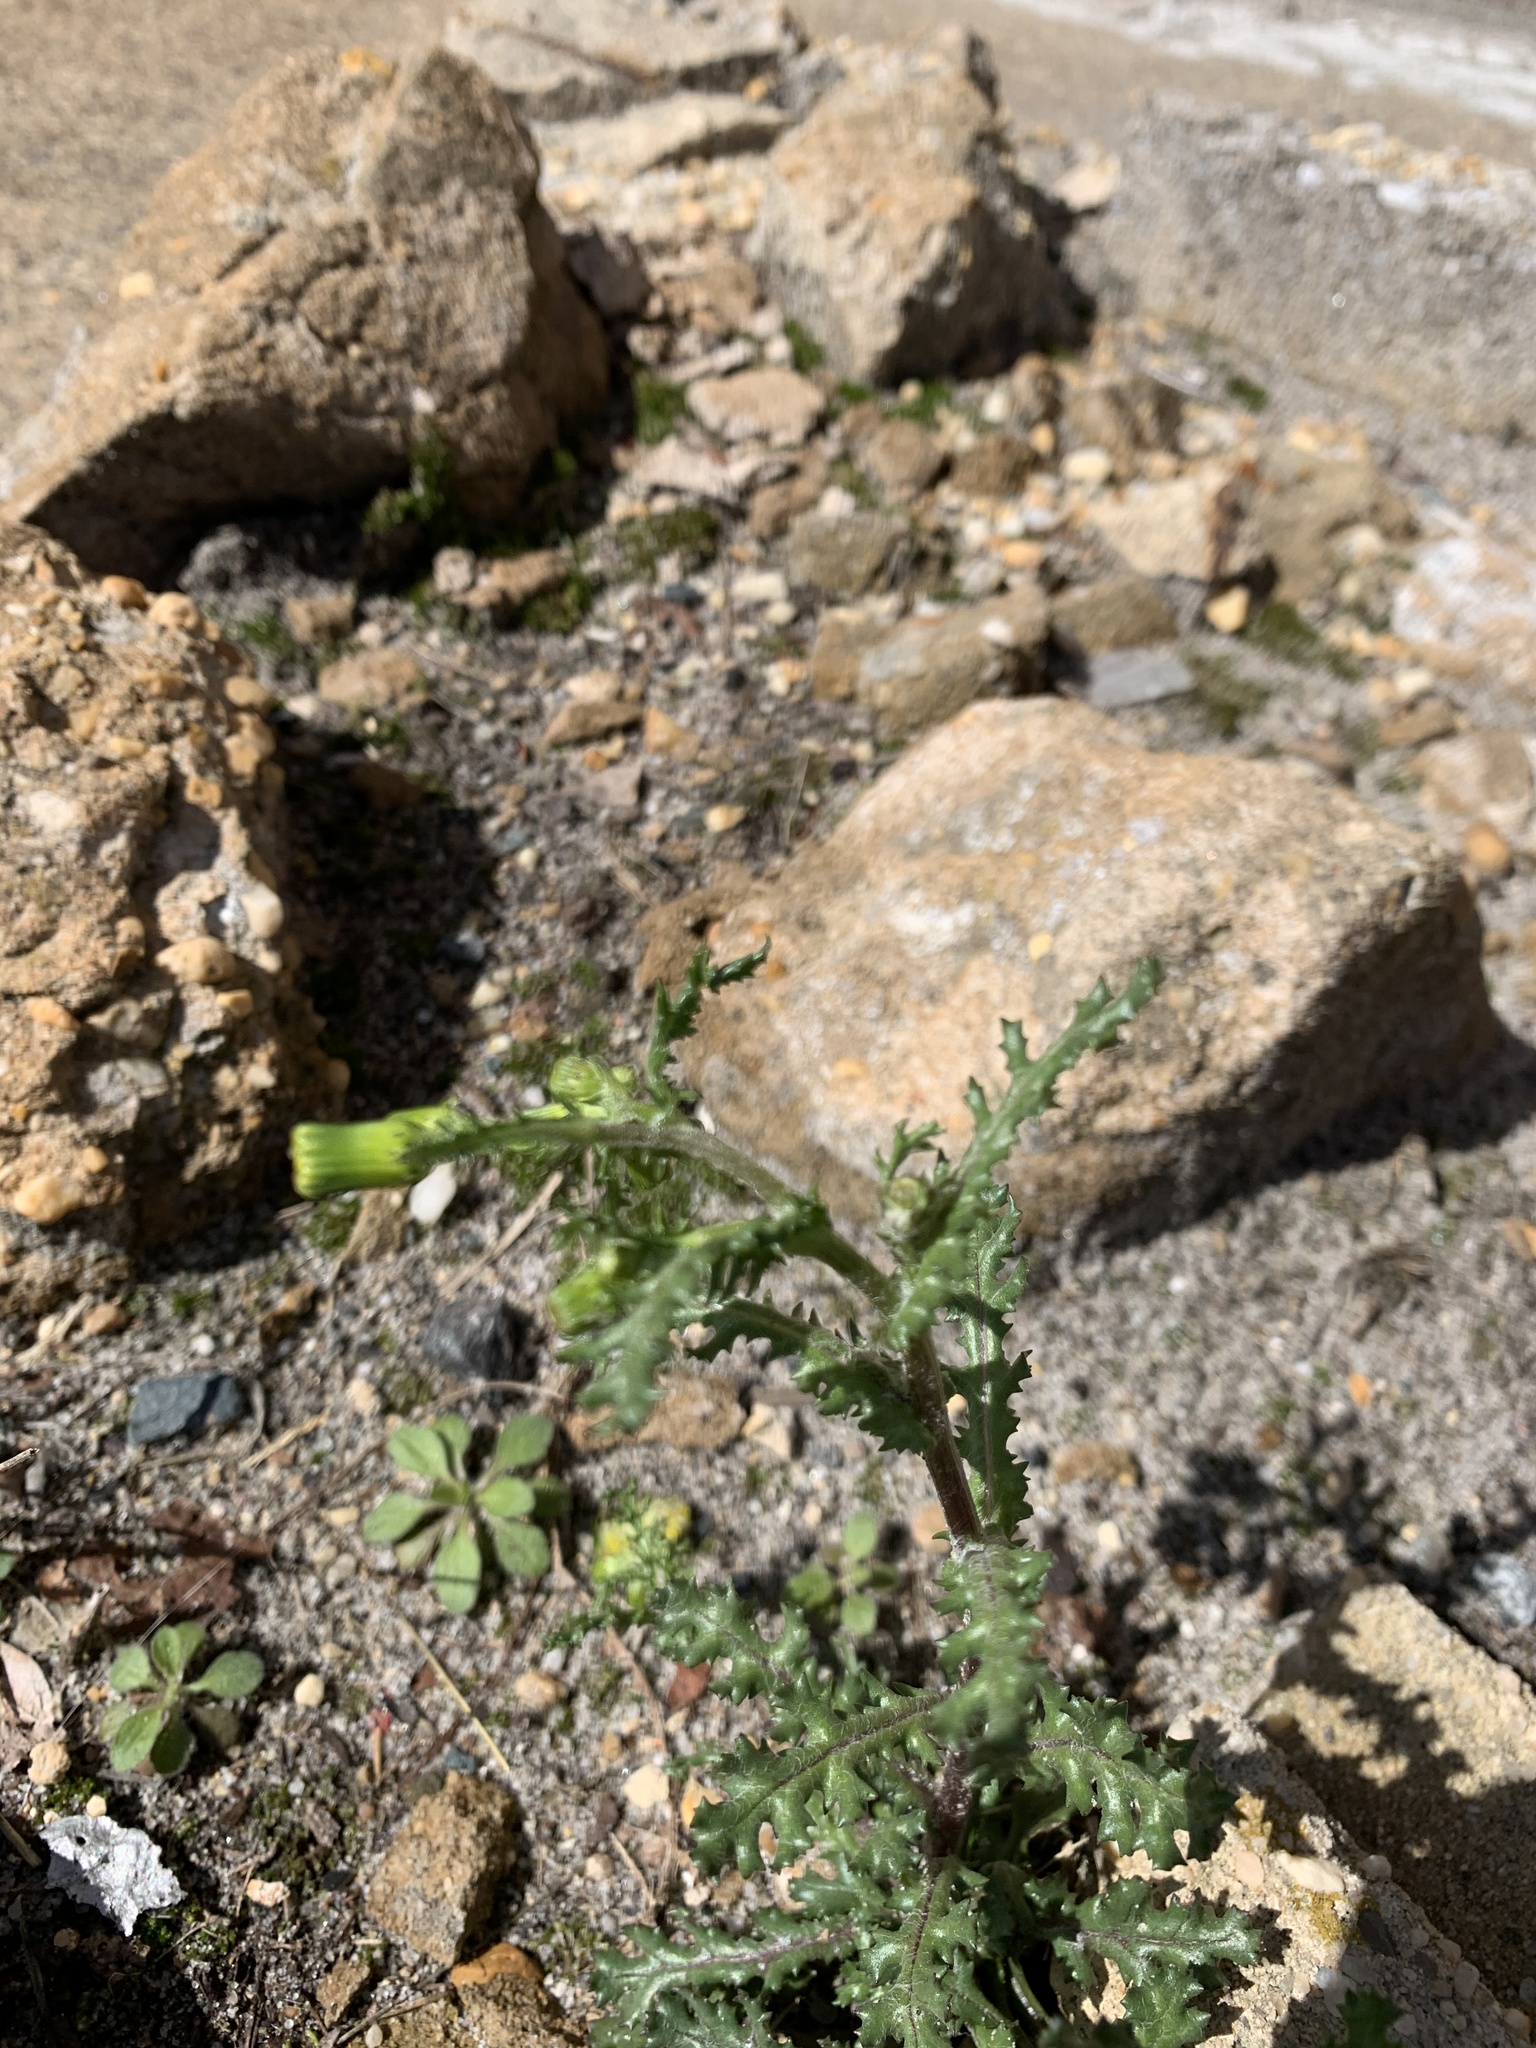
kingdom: Plantae
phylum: Tracheophyta
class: Magnoliopsida
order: Asterales
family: Asteraceae
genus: Senecio
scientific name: Senecio vulgaris
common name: Old-man-in-the-spring
